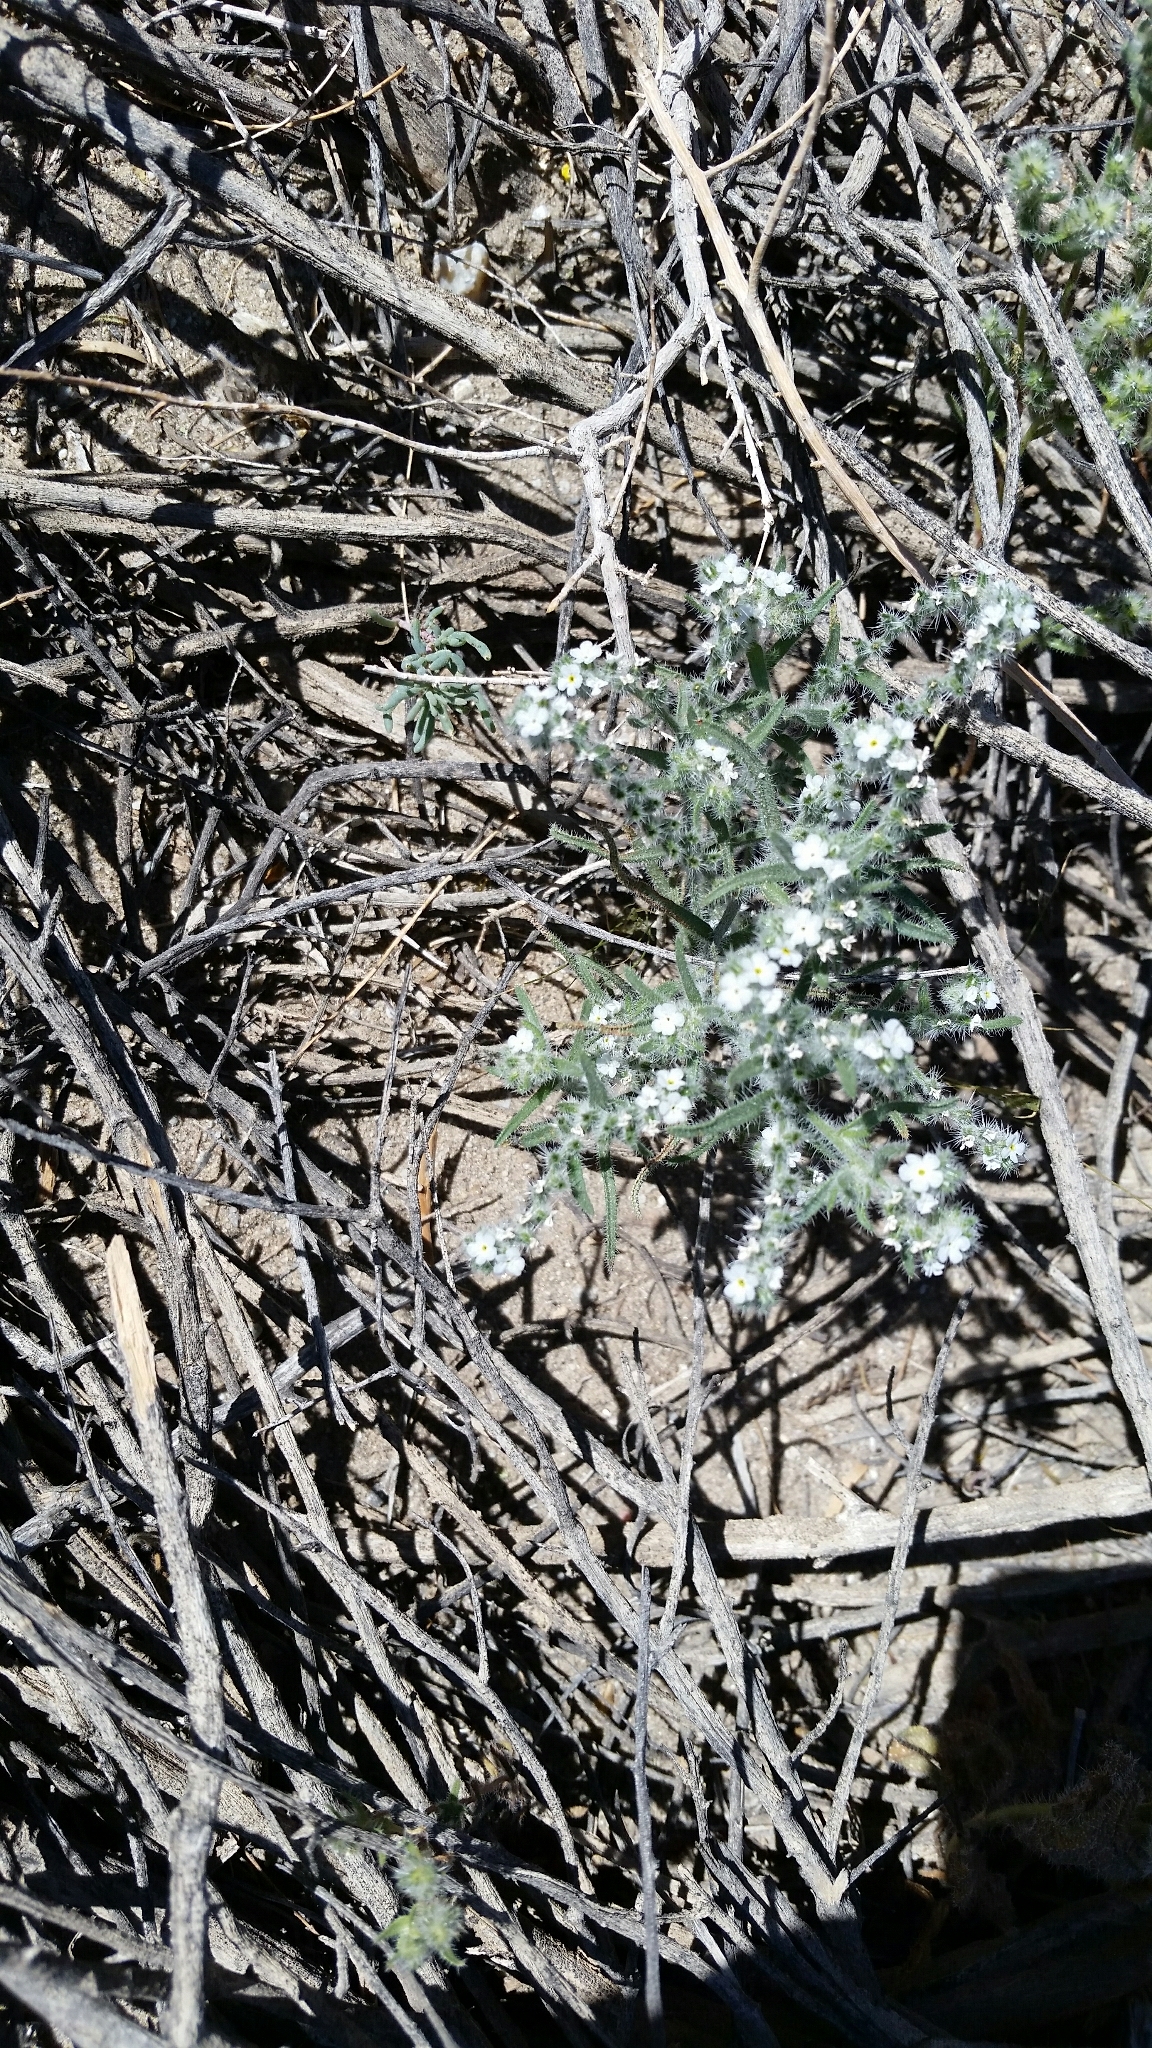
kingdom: Plantae
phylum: Tracheophyta
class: Magnoliopsida
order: Boraginales
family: Boraginaceae
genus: Johnstonella
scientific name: Johnstonella angustifolia
